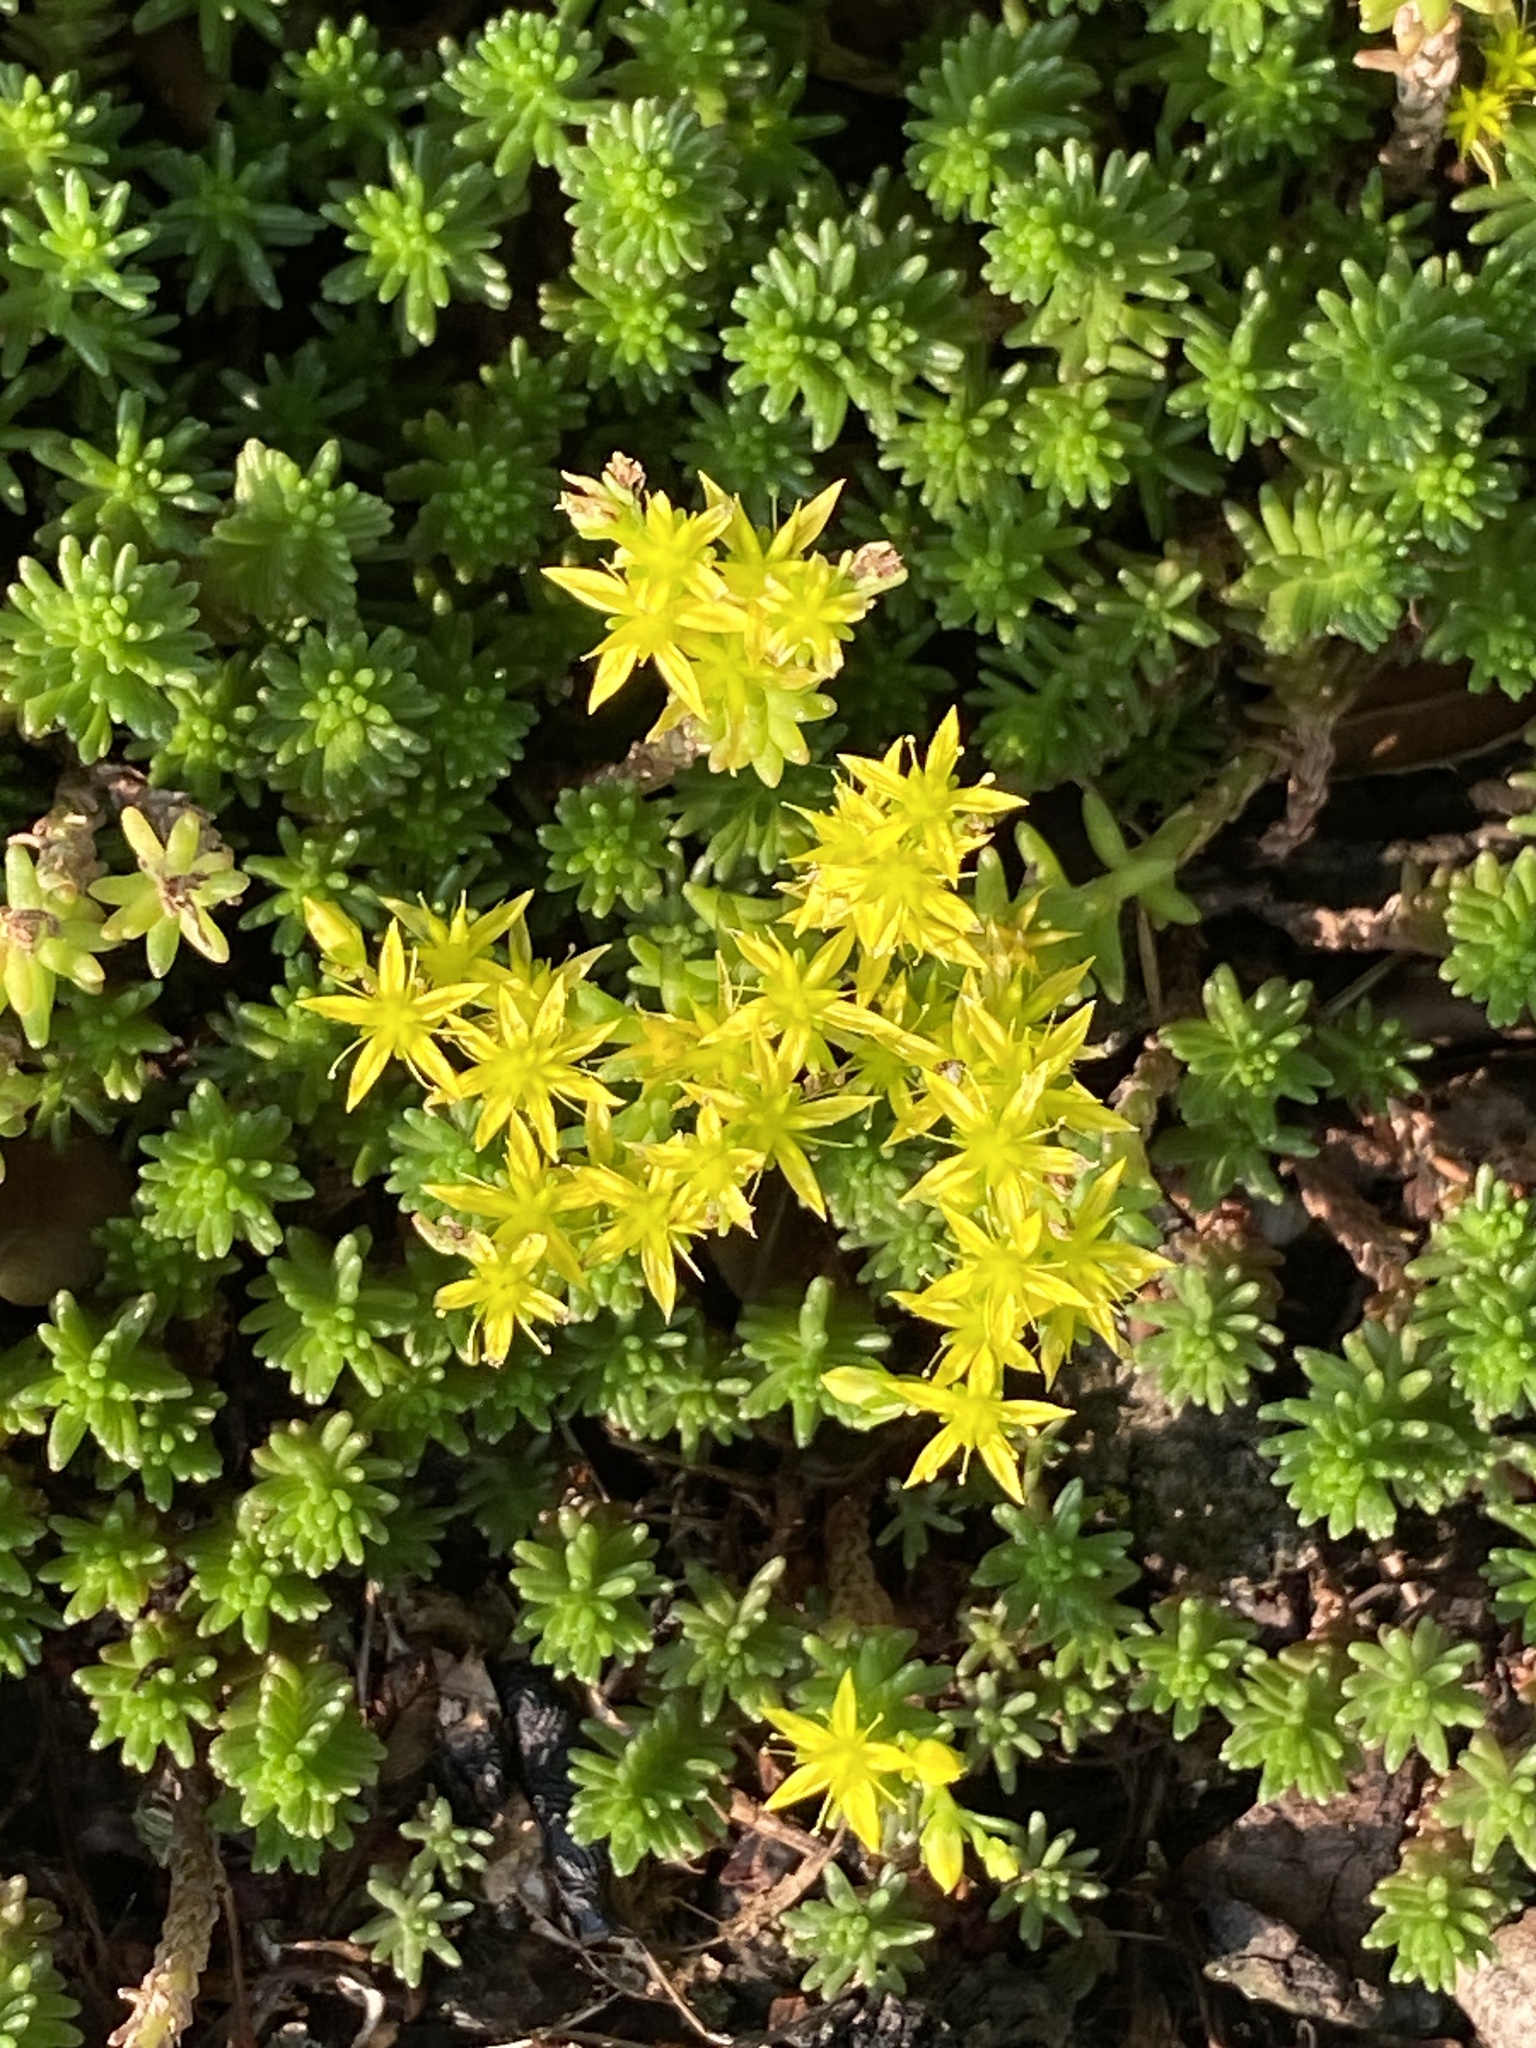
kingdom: Plantae
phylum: Tracheophyta
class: Magnoliopsida
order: Saxifragales
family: Crassulaceae
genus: Sedum
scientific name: Sedum sexangulare
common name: Tasteless stonecrop
